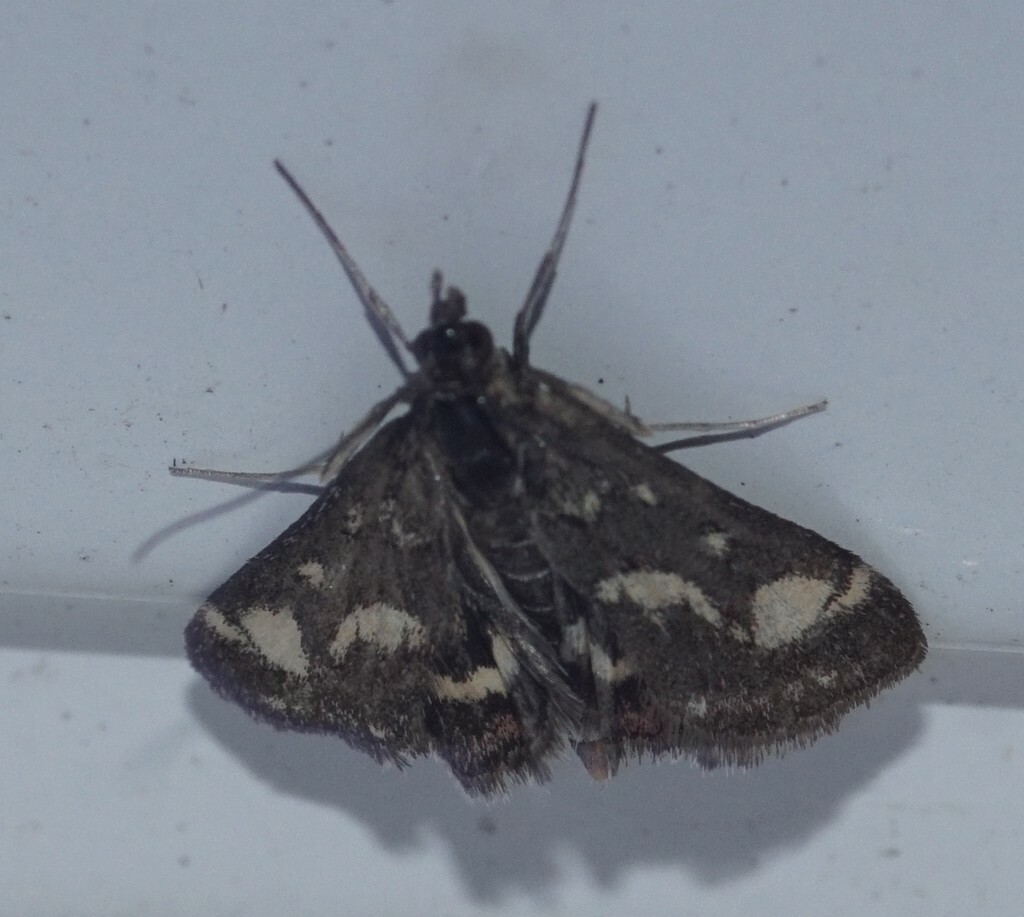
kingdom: Animalia
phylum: Arthropoda
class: Insecta
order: Lepidoptera
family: Crambidae
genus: Pyrausta
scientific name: Pyrausta purpuralis
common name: Common purple & gold
